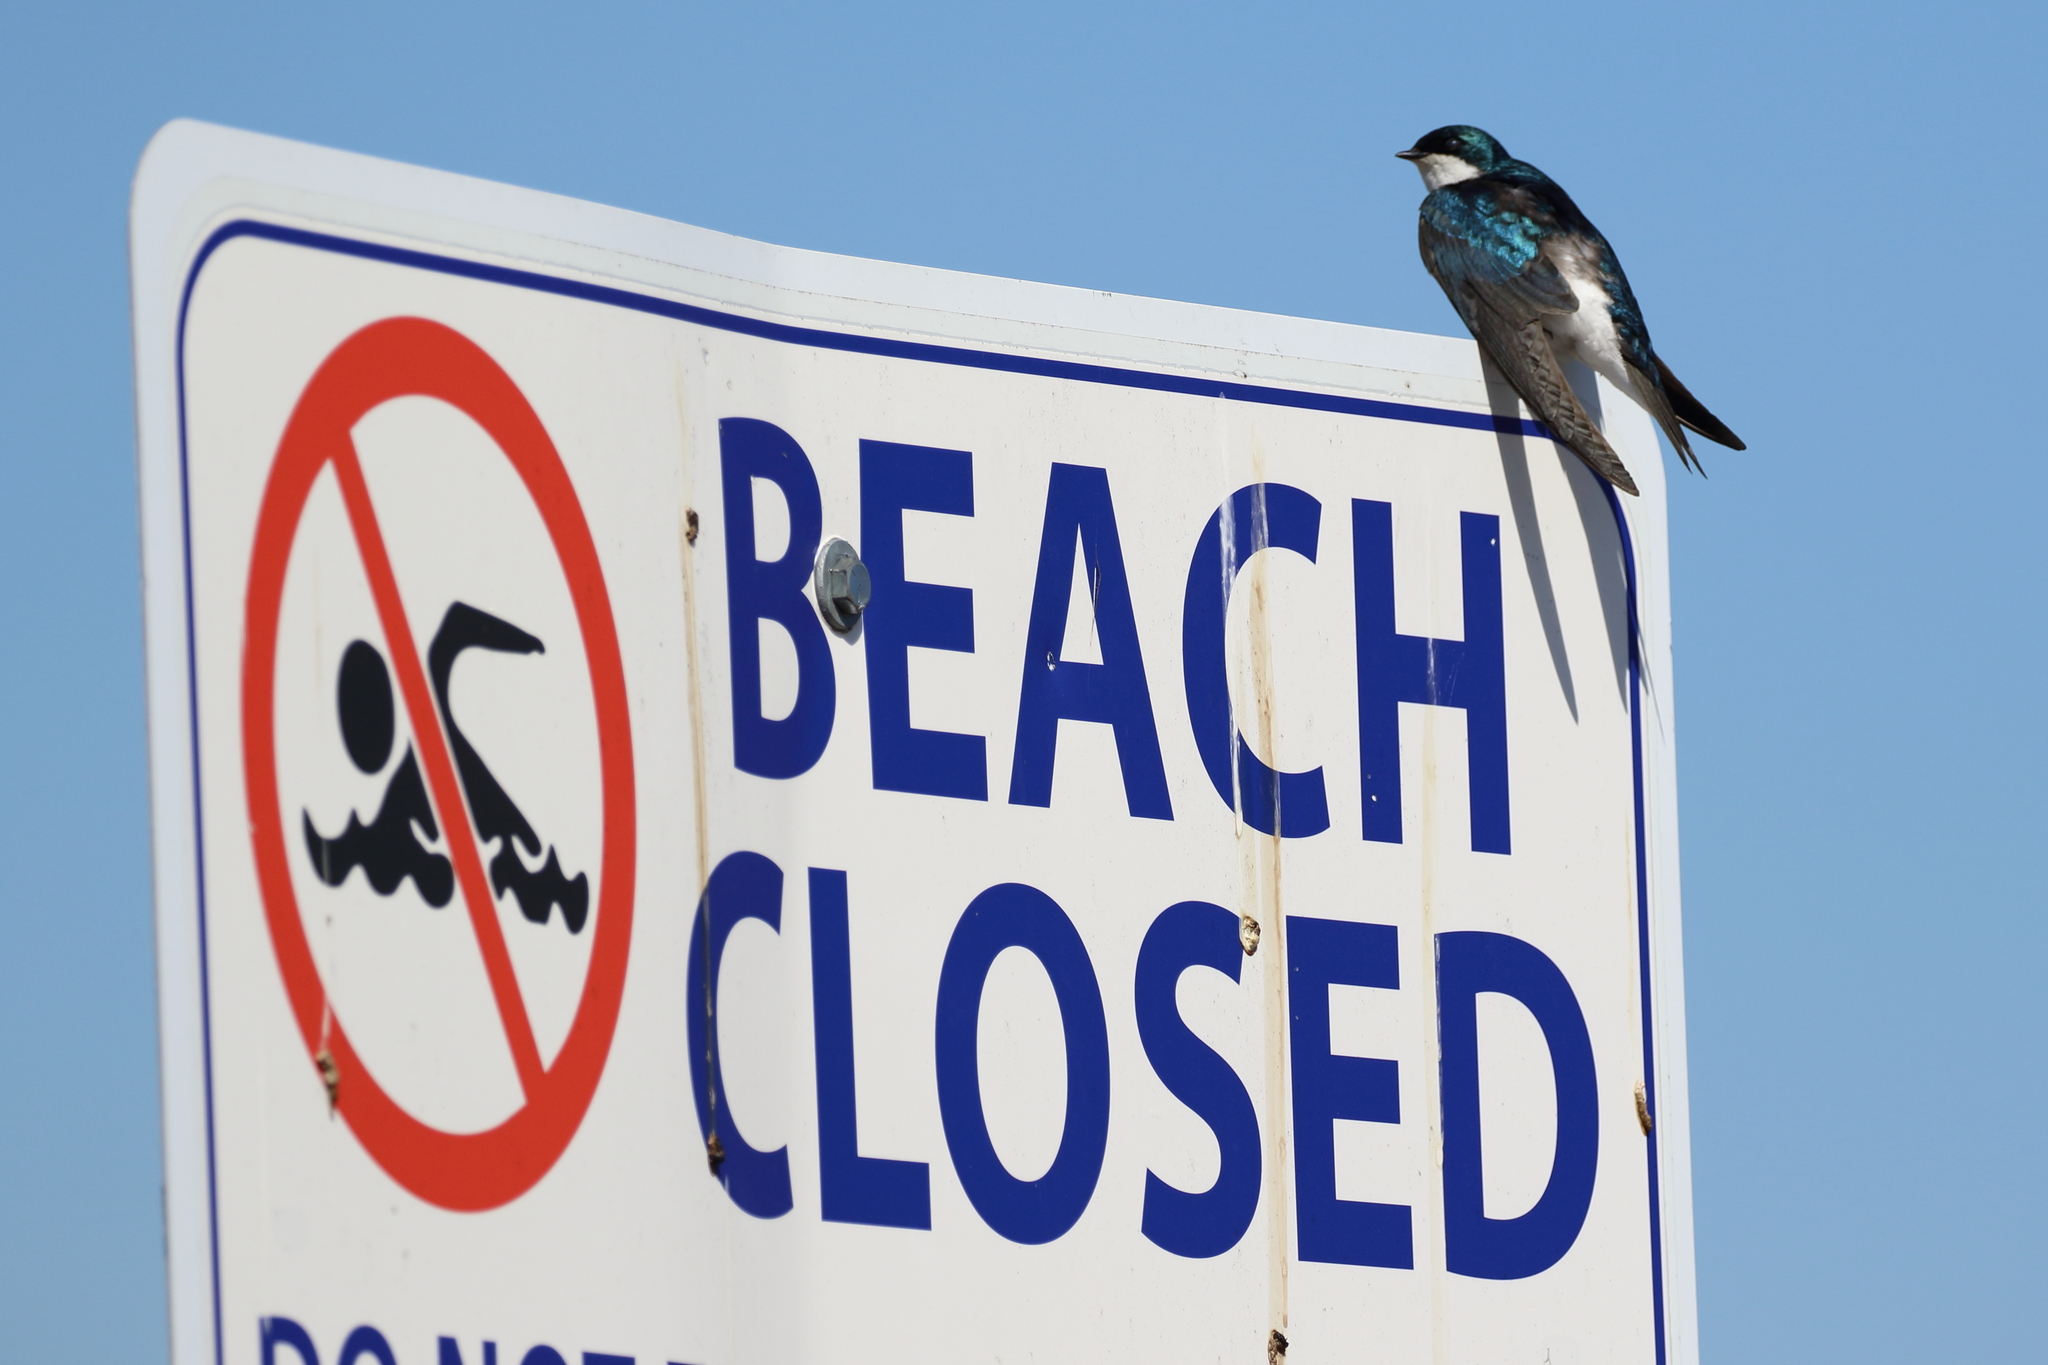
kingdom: Animalia
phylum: Chordata
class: Aves
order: Passeriformes
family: Hirundinidae
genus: Tachycineta
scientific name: Tachycineta bicolor
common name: Tree swallow
